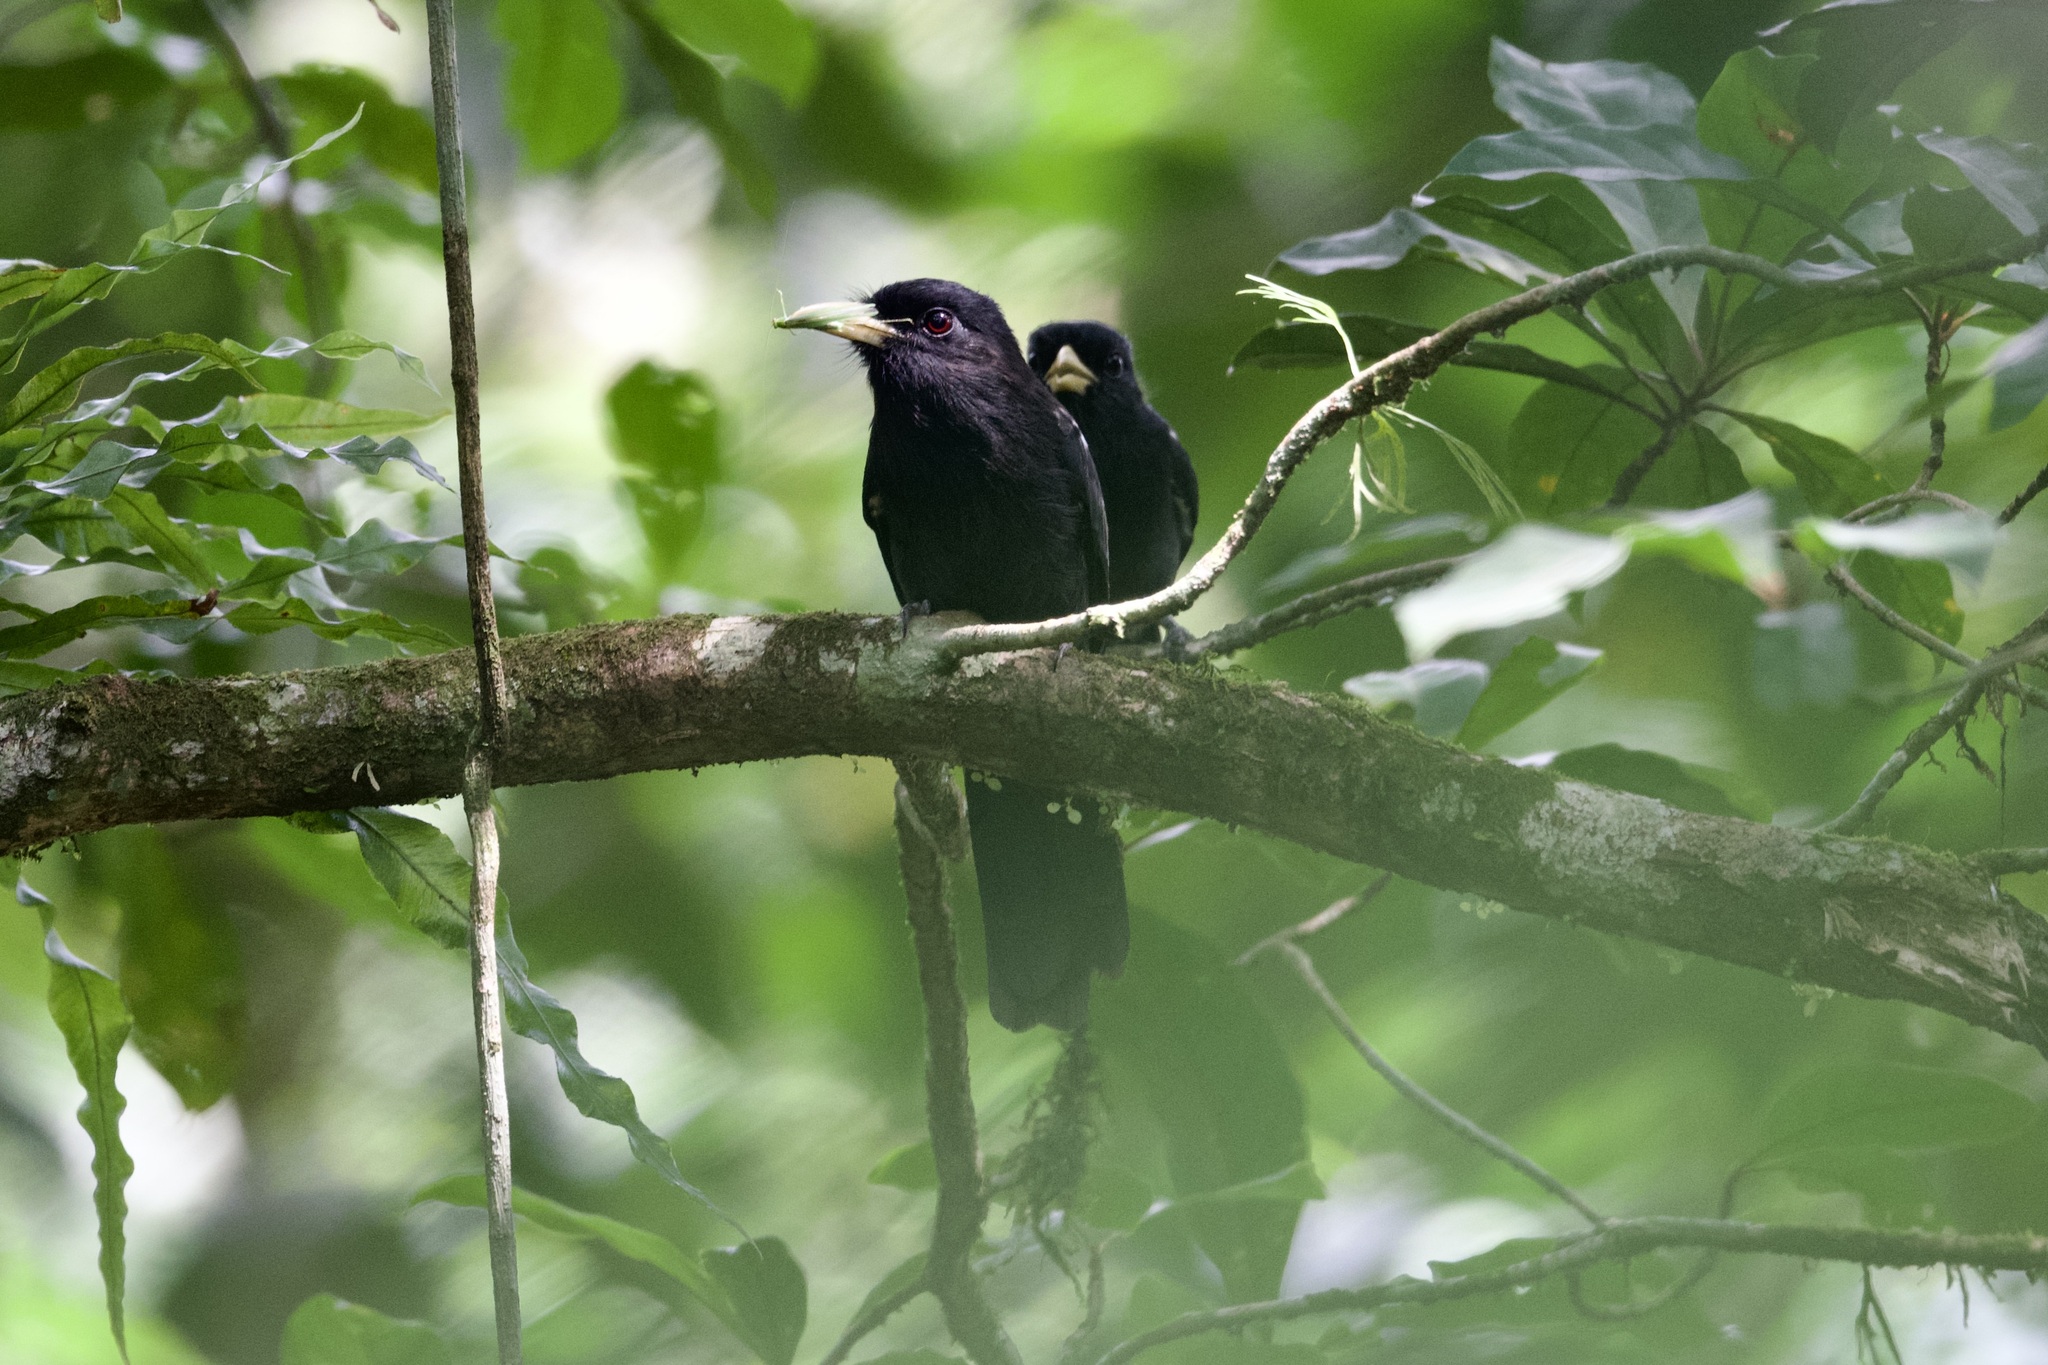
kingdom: Animalia
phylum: Chordata
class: Aves
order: Piciformes
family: Bucconidae
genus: Monasa
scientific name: Monasa flavirostris
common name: Yellow-billed nunbird
